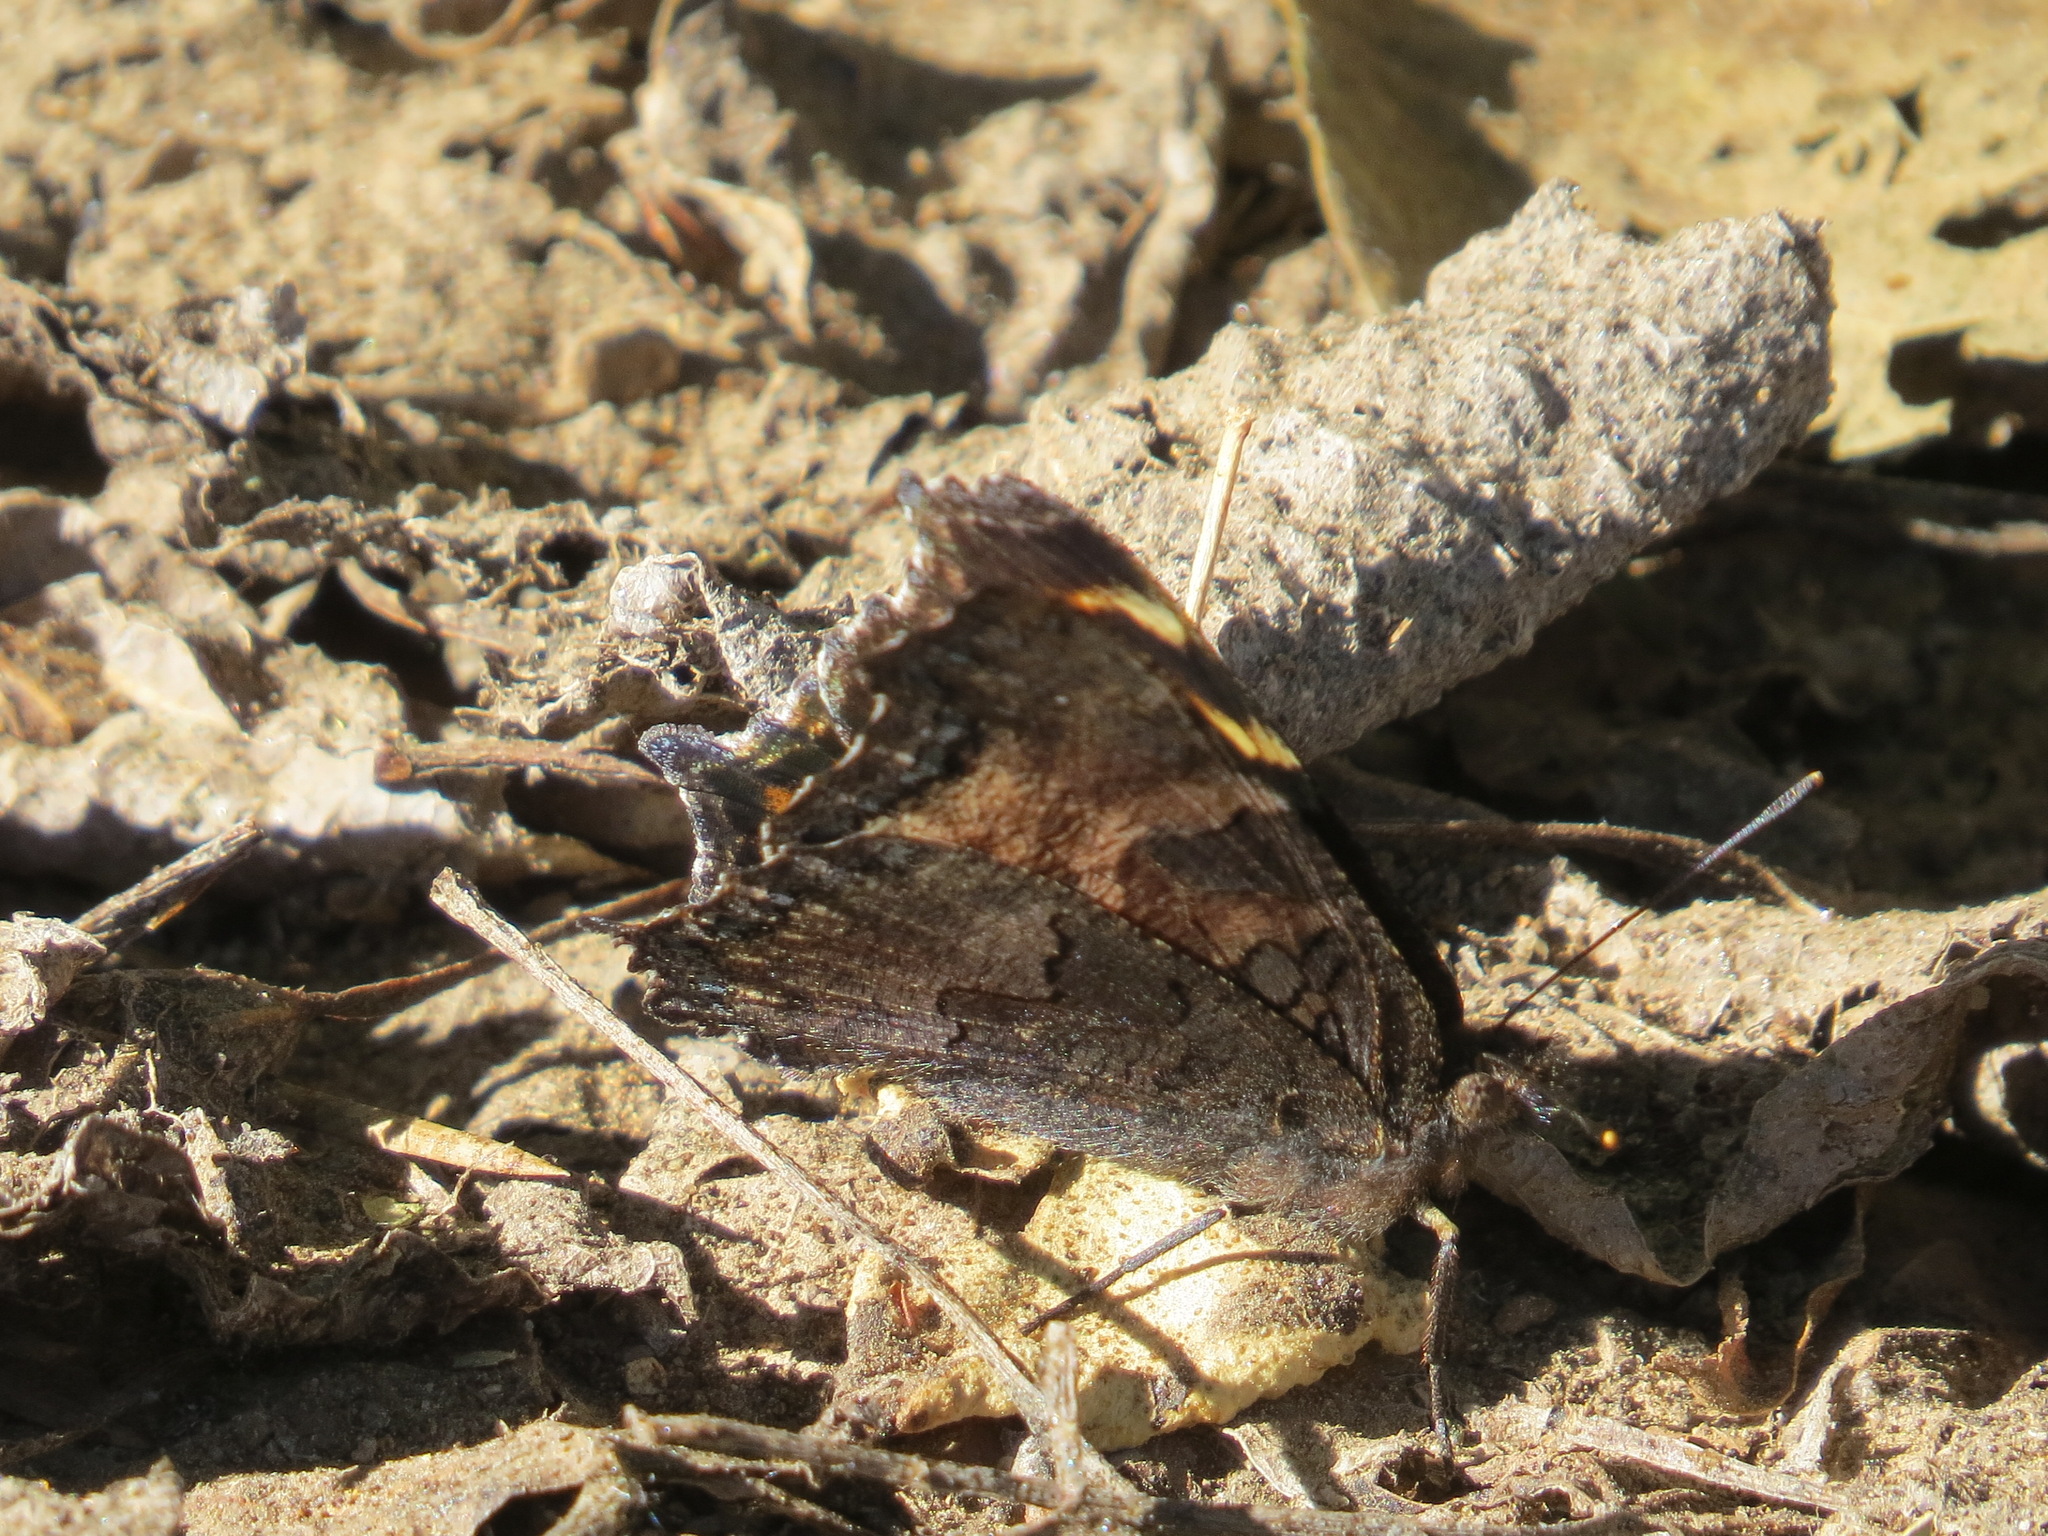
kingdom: Animalia
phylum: Arthropoda
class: Insecta
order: Lepidoptera
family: Nymphalidae
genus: Nymphalis
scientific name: Nymphalis californica
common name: California tortoiseshell
